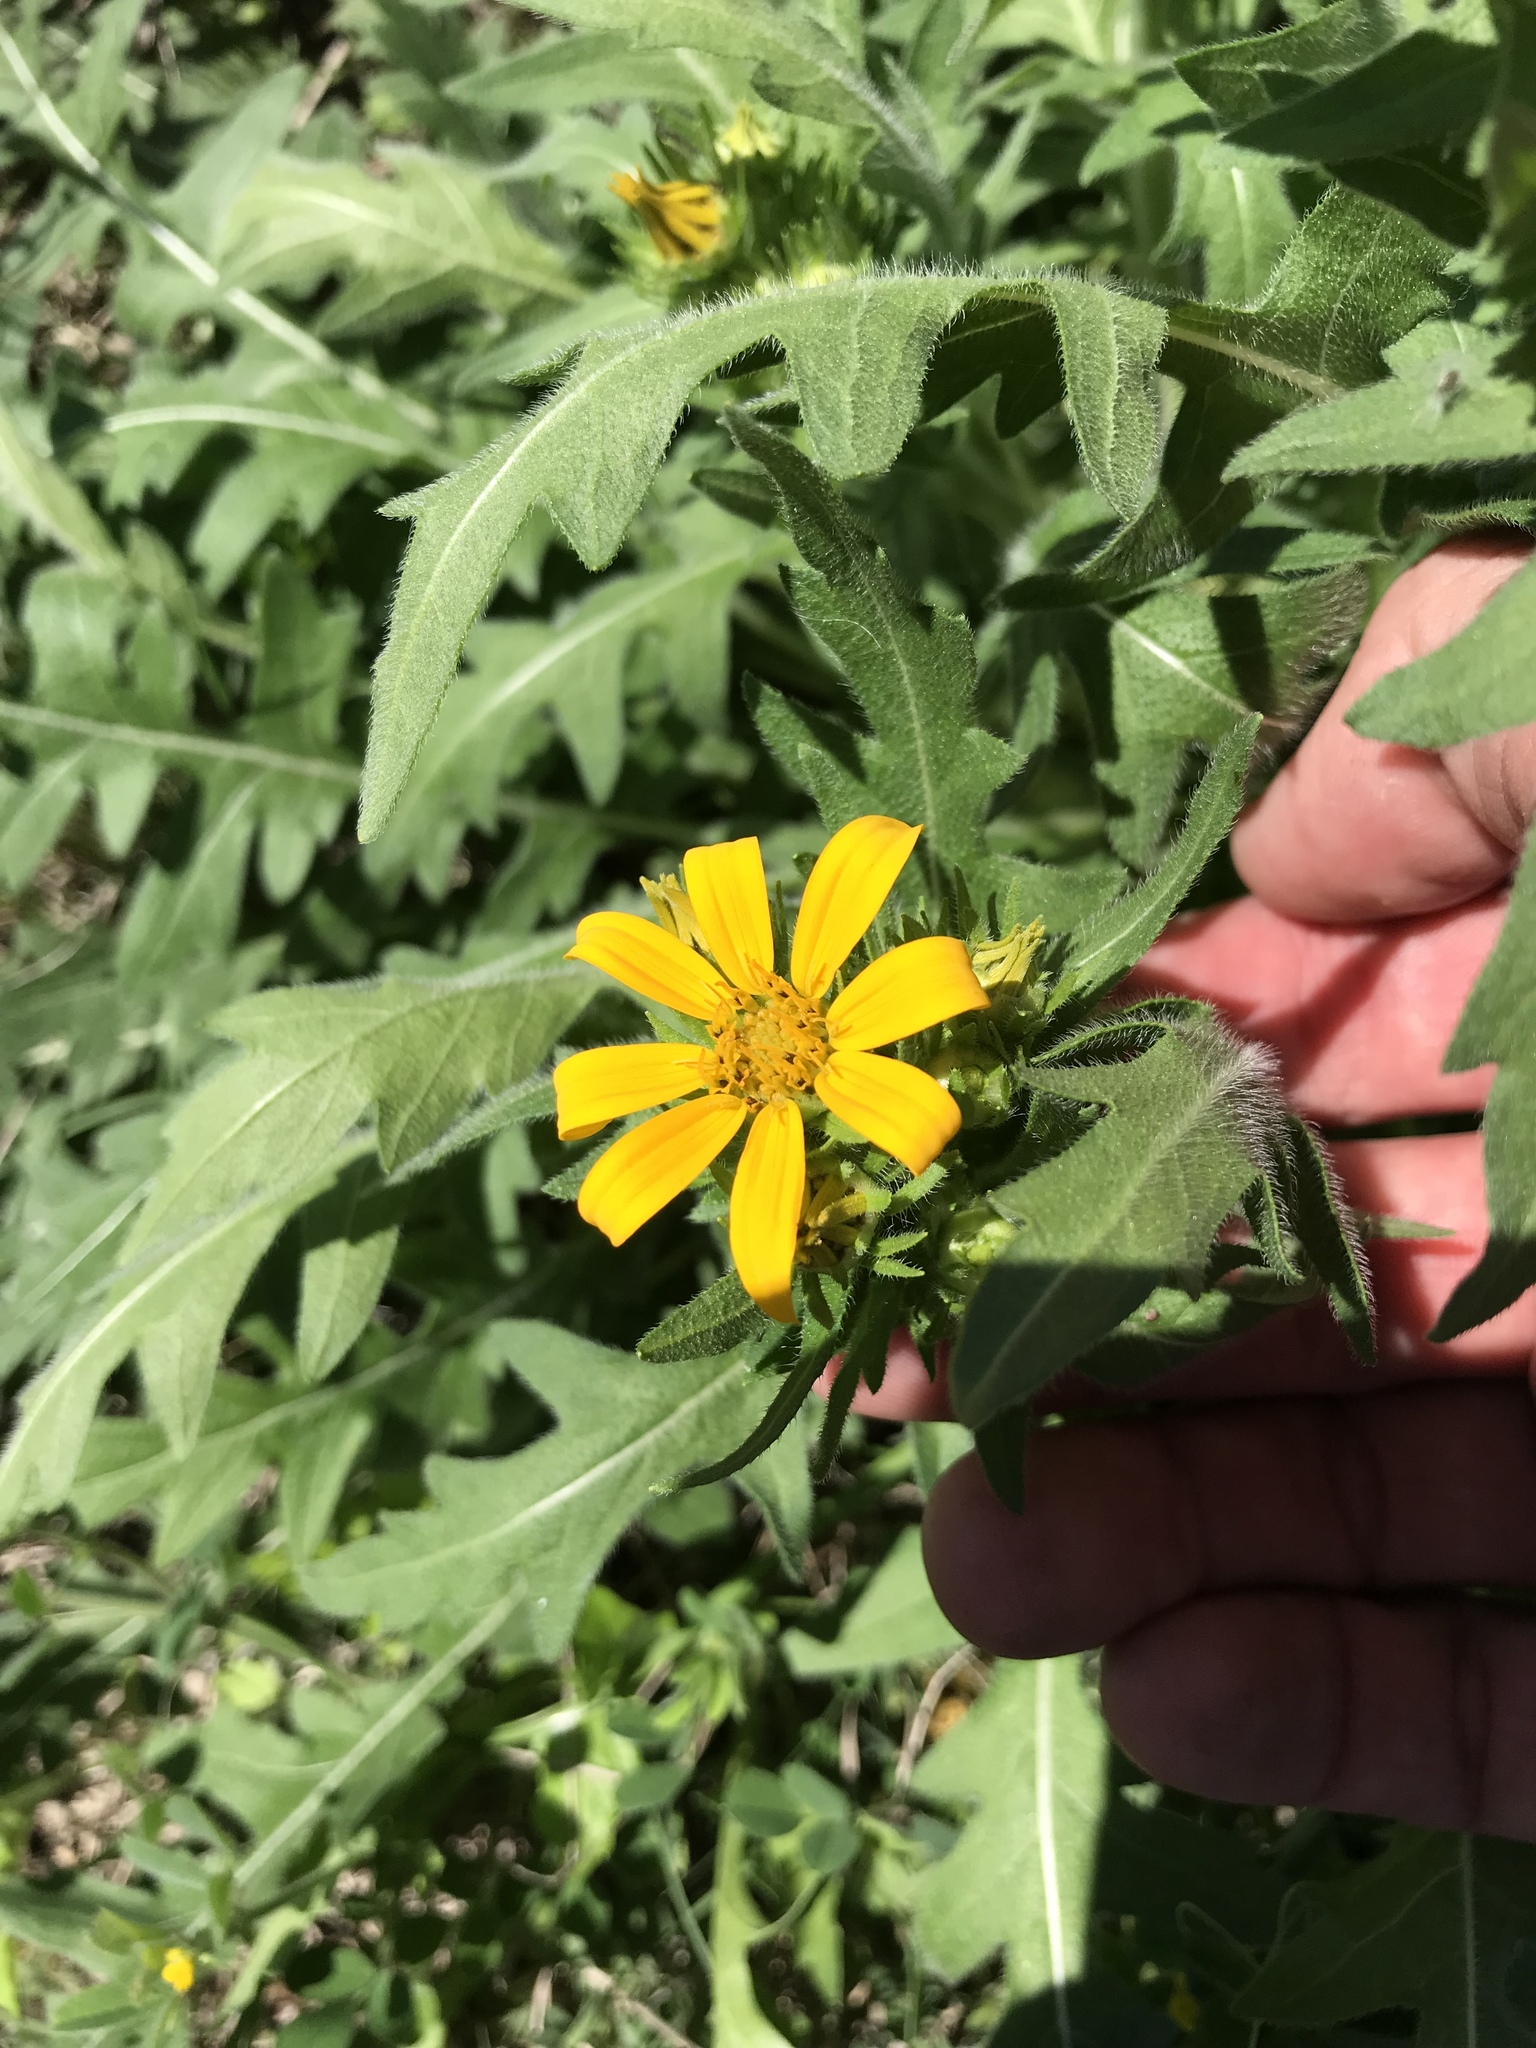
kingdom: Plantae
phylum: Tracheophyta
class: Magnoliopsida
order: Asterales
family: Asteraceae
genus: Engelmannia
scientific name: Engelmannia peristenia
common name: Engelmann's daisy
